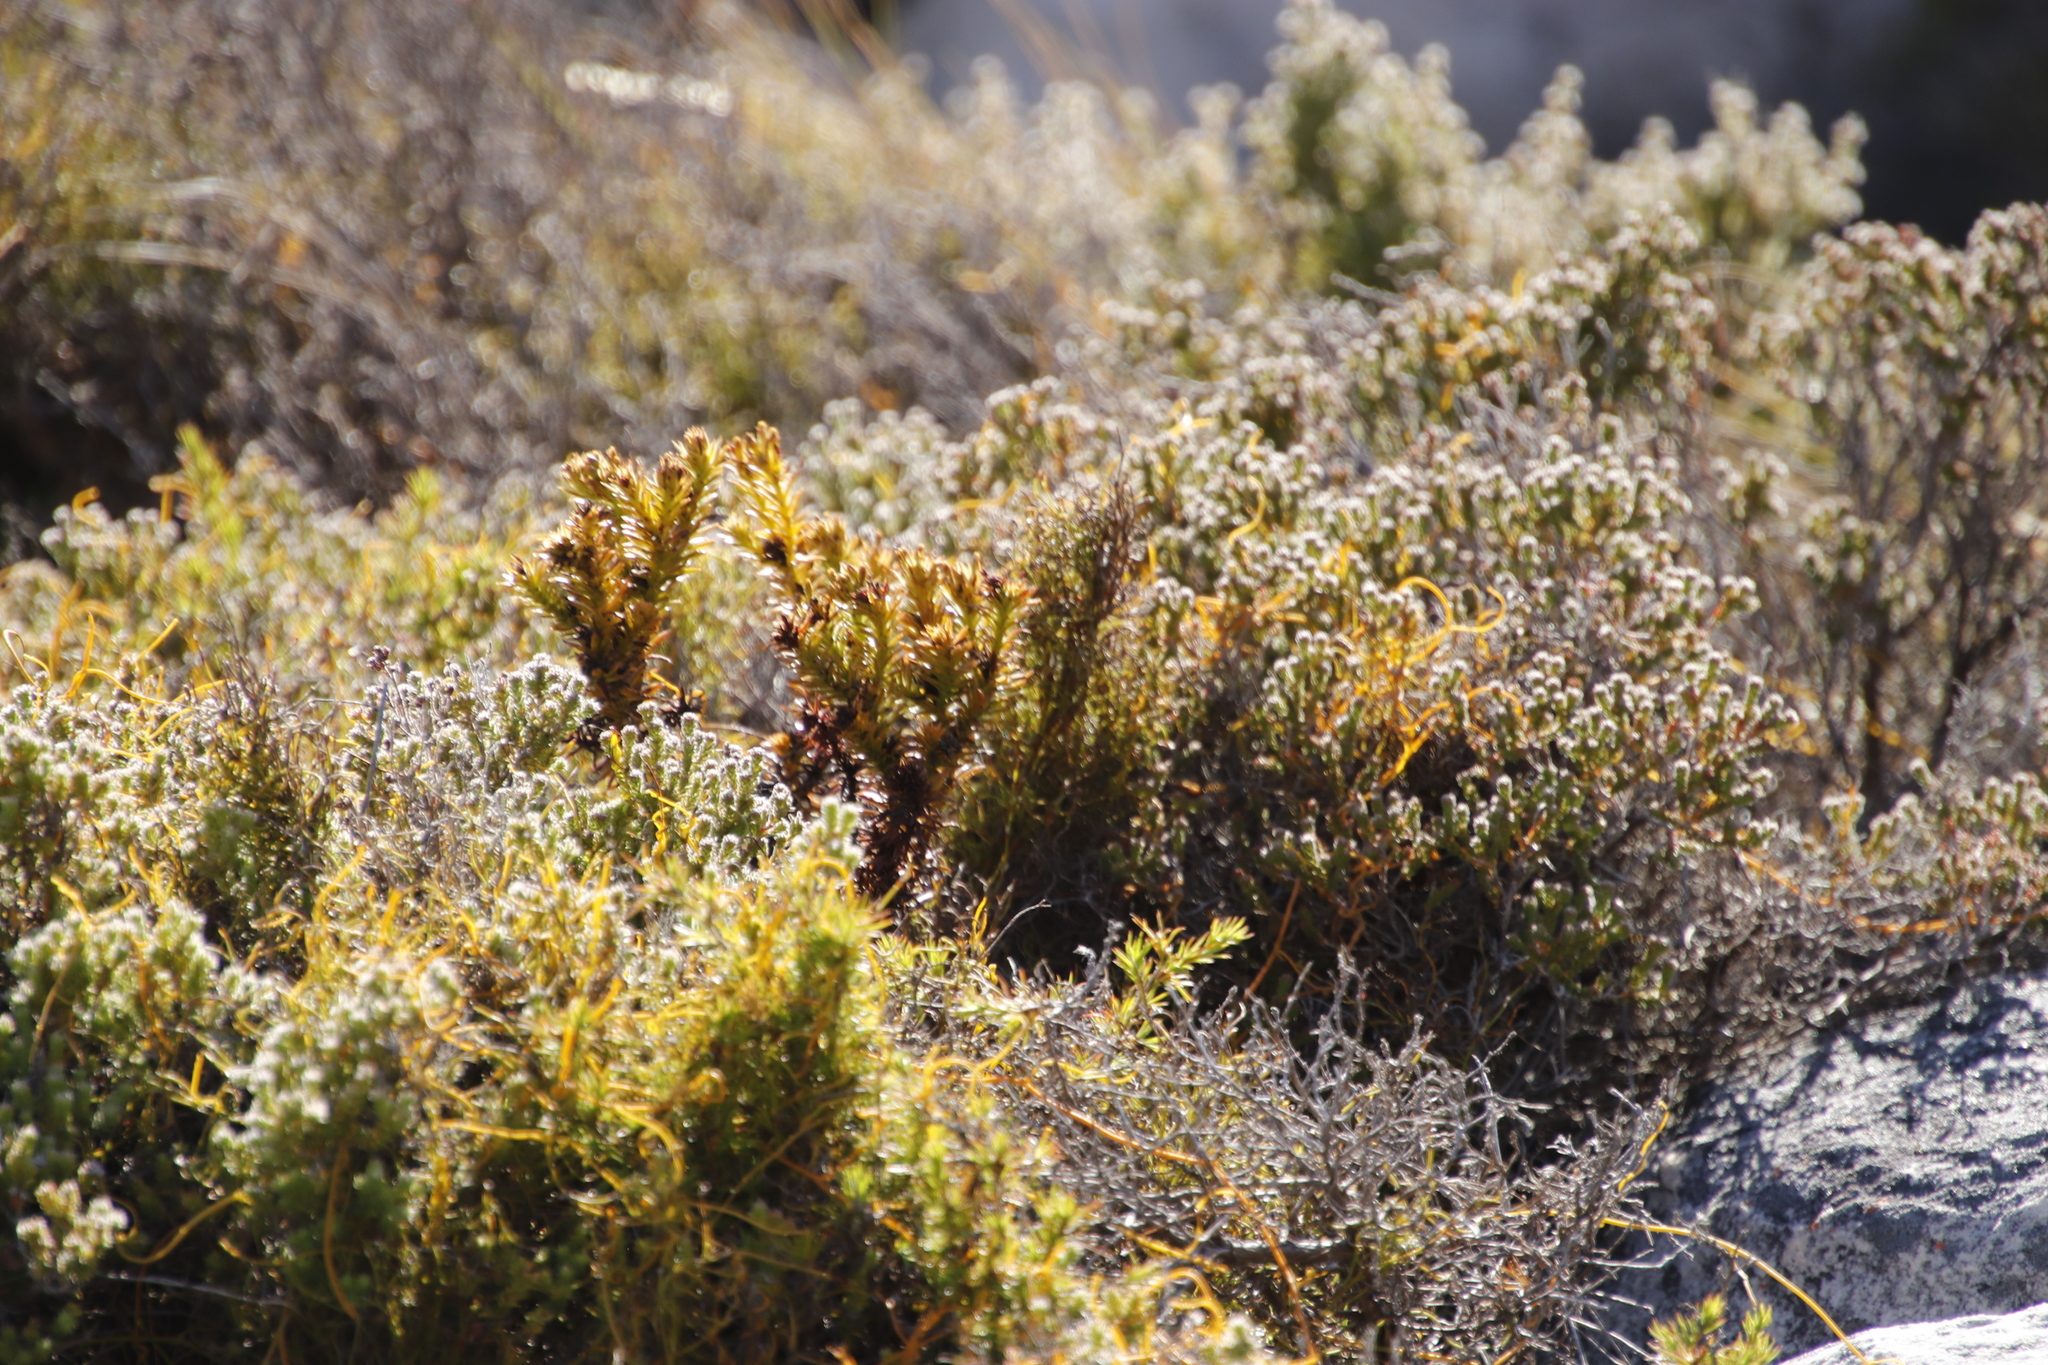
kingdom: Plantae
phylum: Tracheophyta
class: Magnoliopsida
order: Santalales
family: Thesiaceae
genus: Thesium
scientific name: Thesium viridifolium
